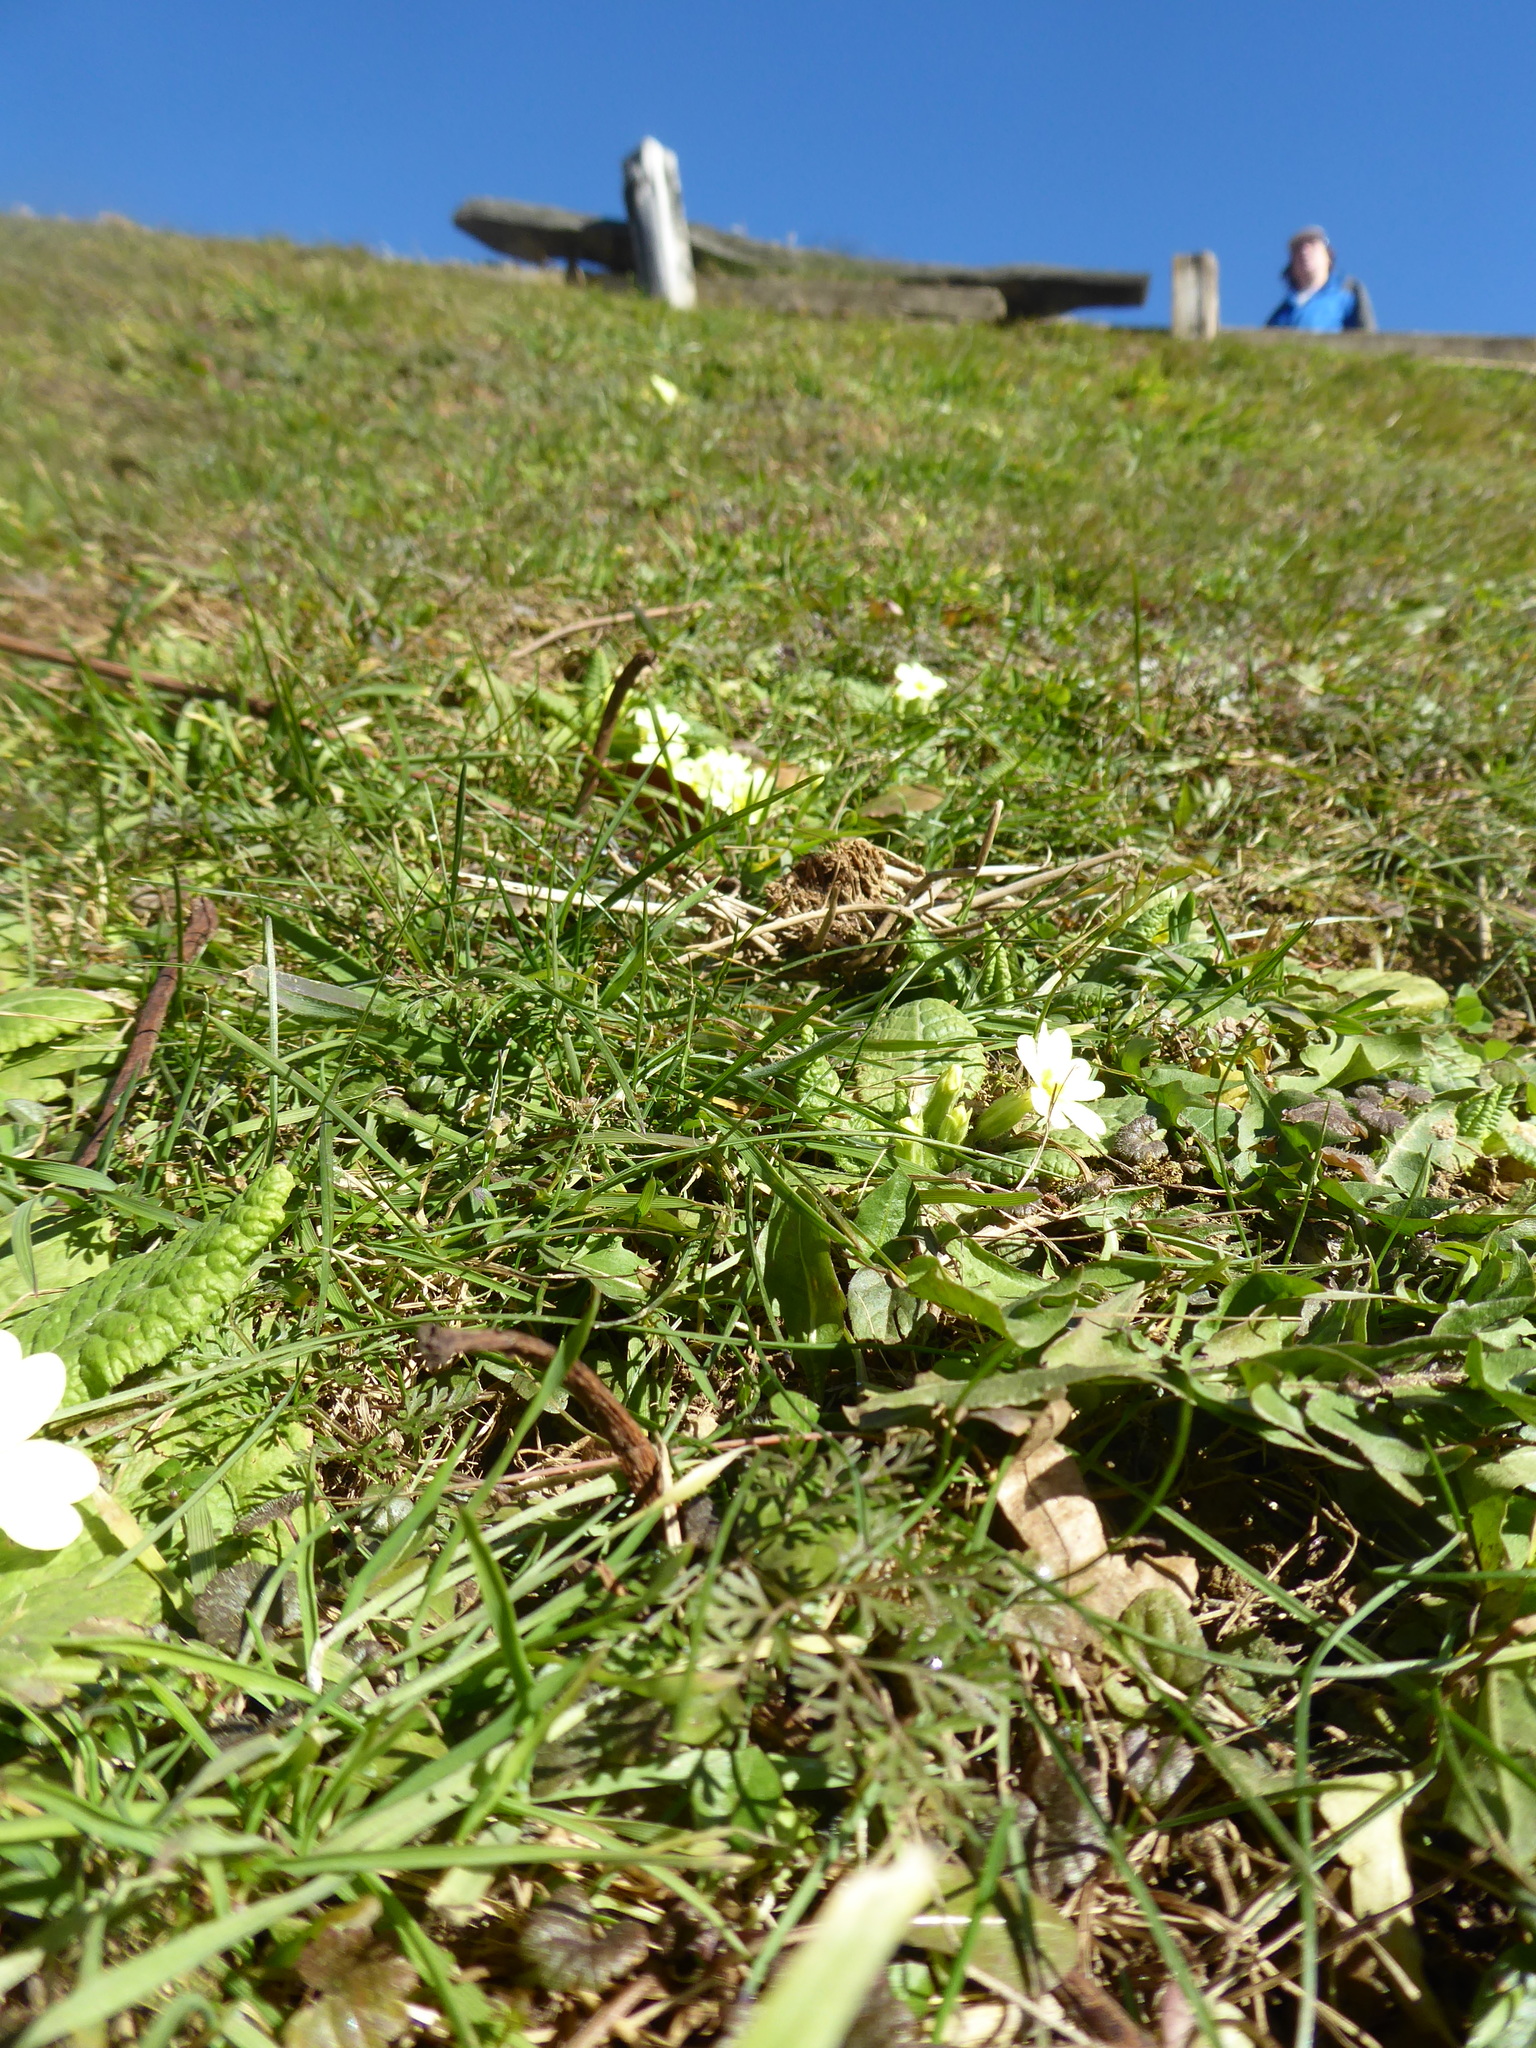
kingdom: Plantae
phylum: Tracheophyta
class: Magnoliopsida
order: Ericales
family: Primulaceae
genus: Primula
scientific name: Primula vulgaris
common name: Primrose
